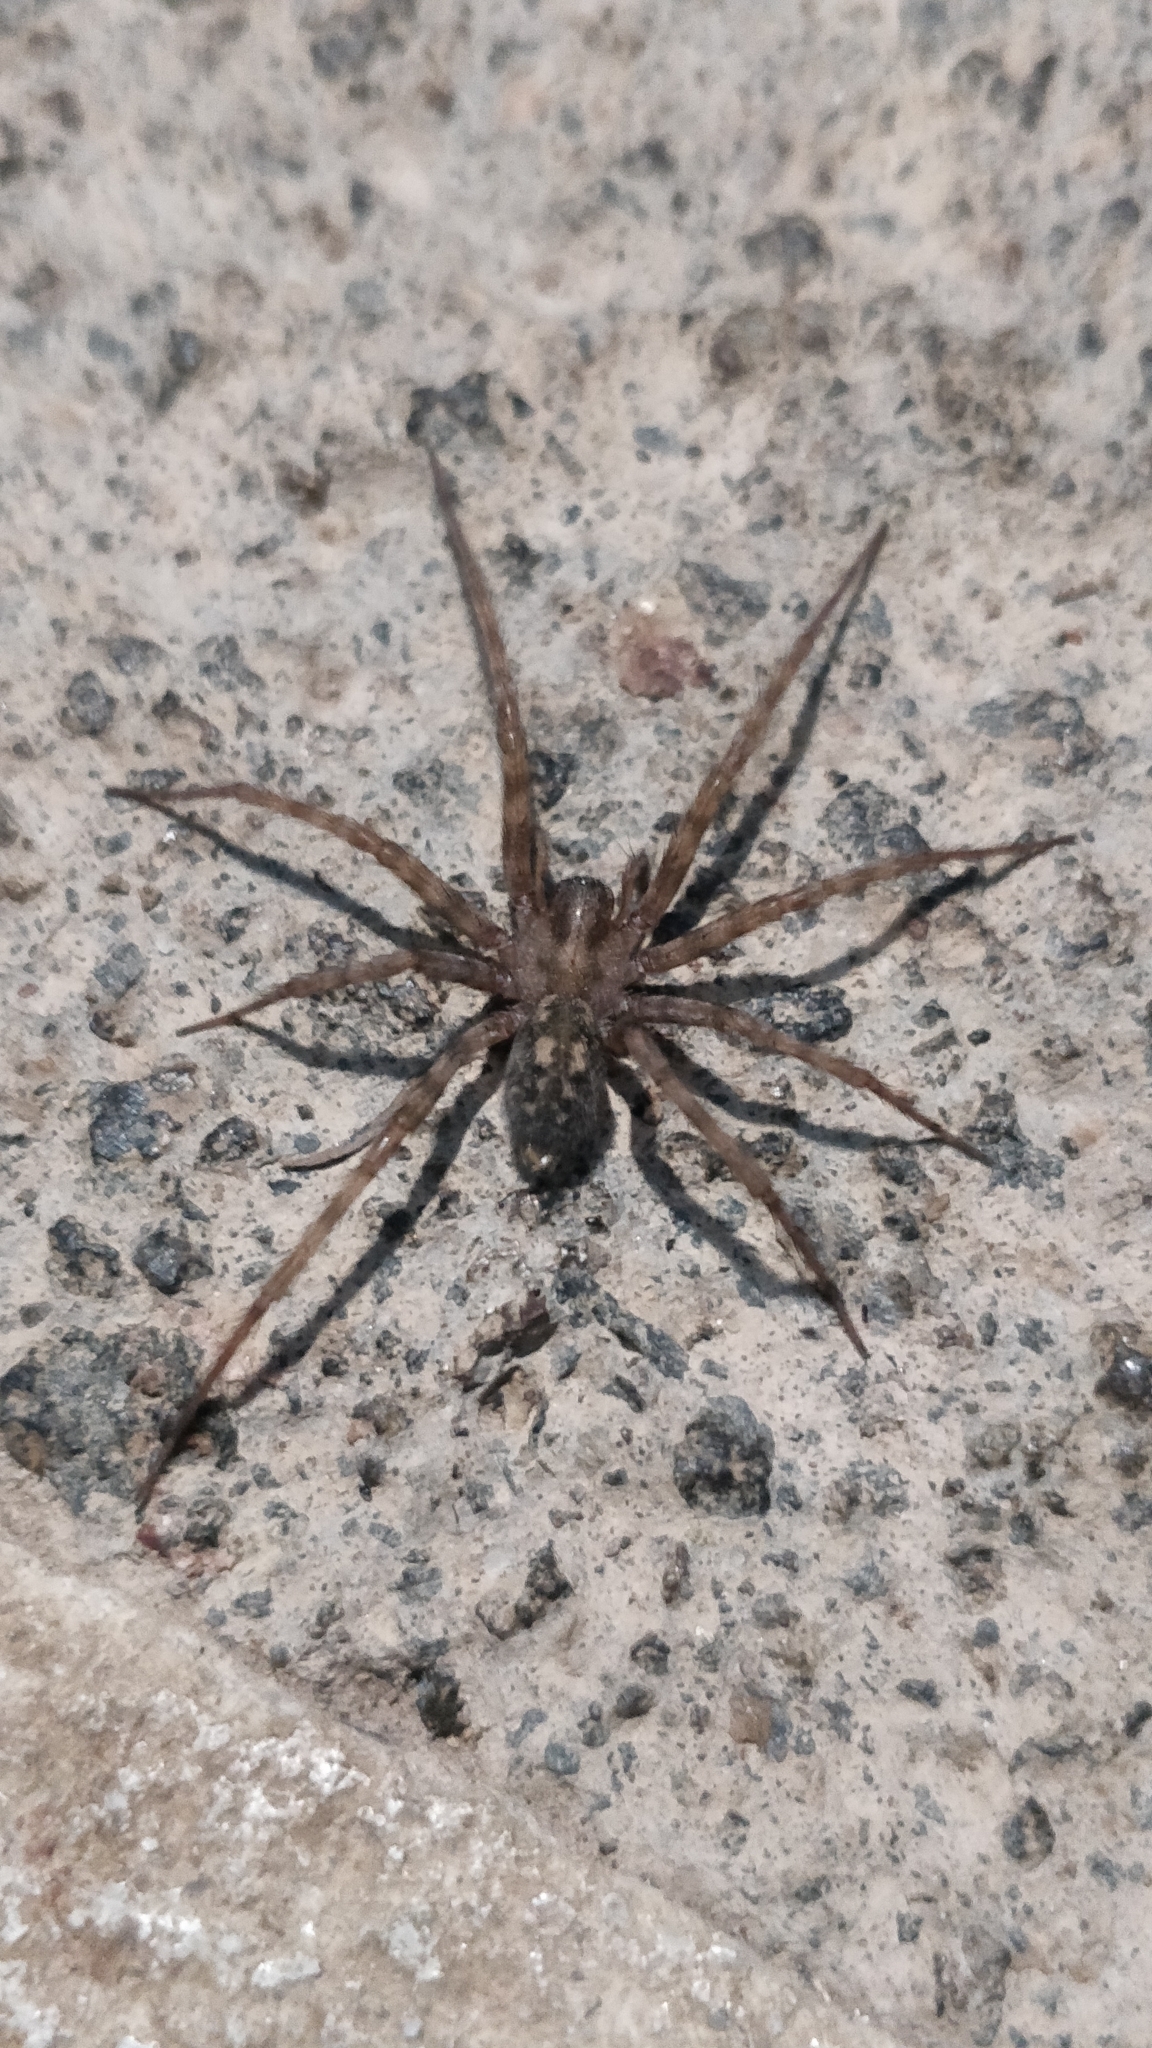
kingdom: Animalia
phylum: Arthropoda
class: Arachnida
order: Araneae
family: Agelenidae
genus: Tegenaria
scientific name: Tegenaria pagana
